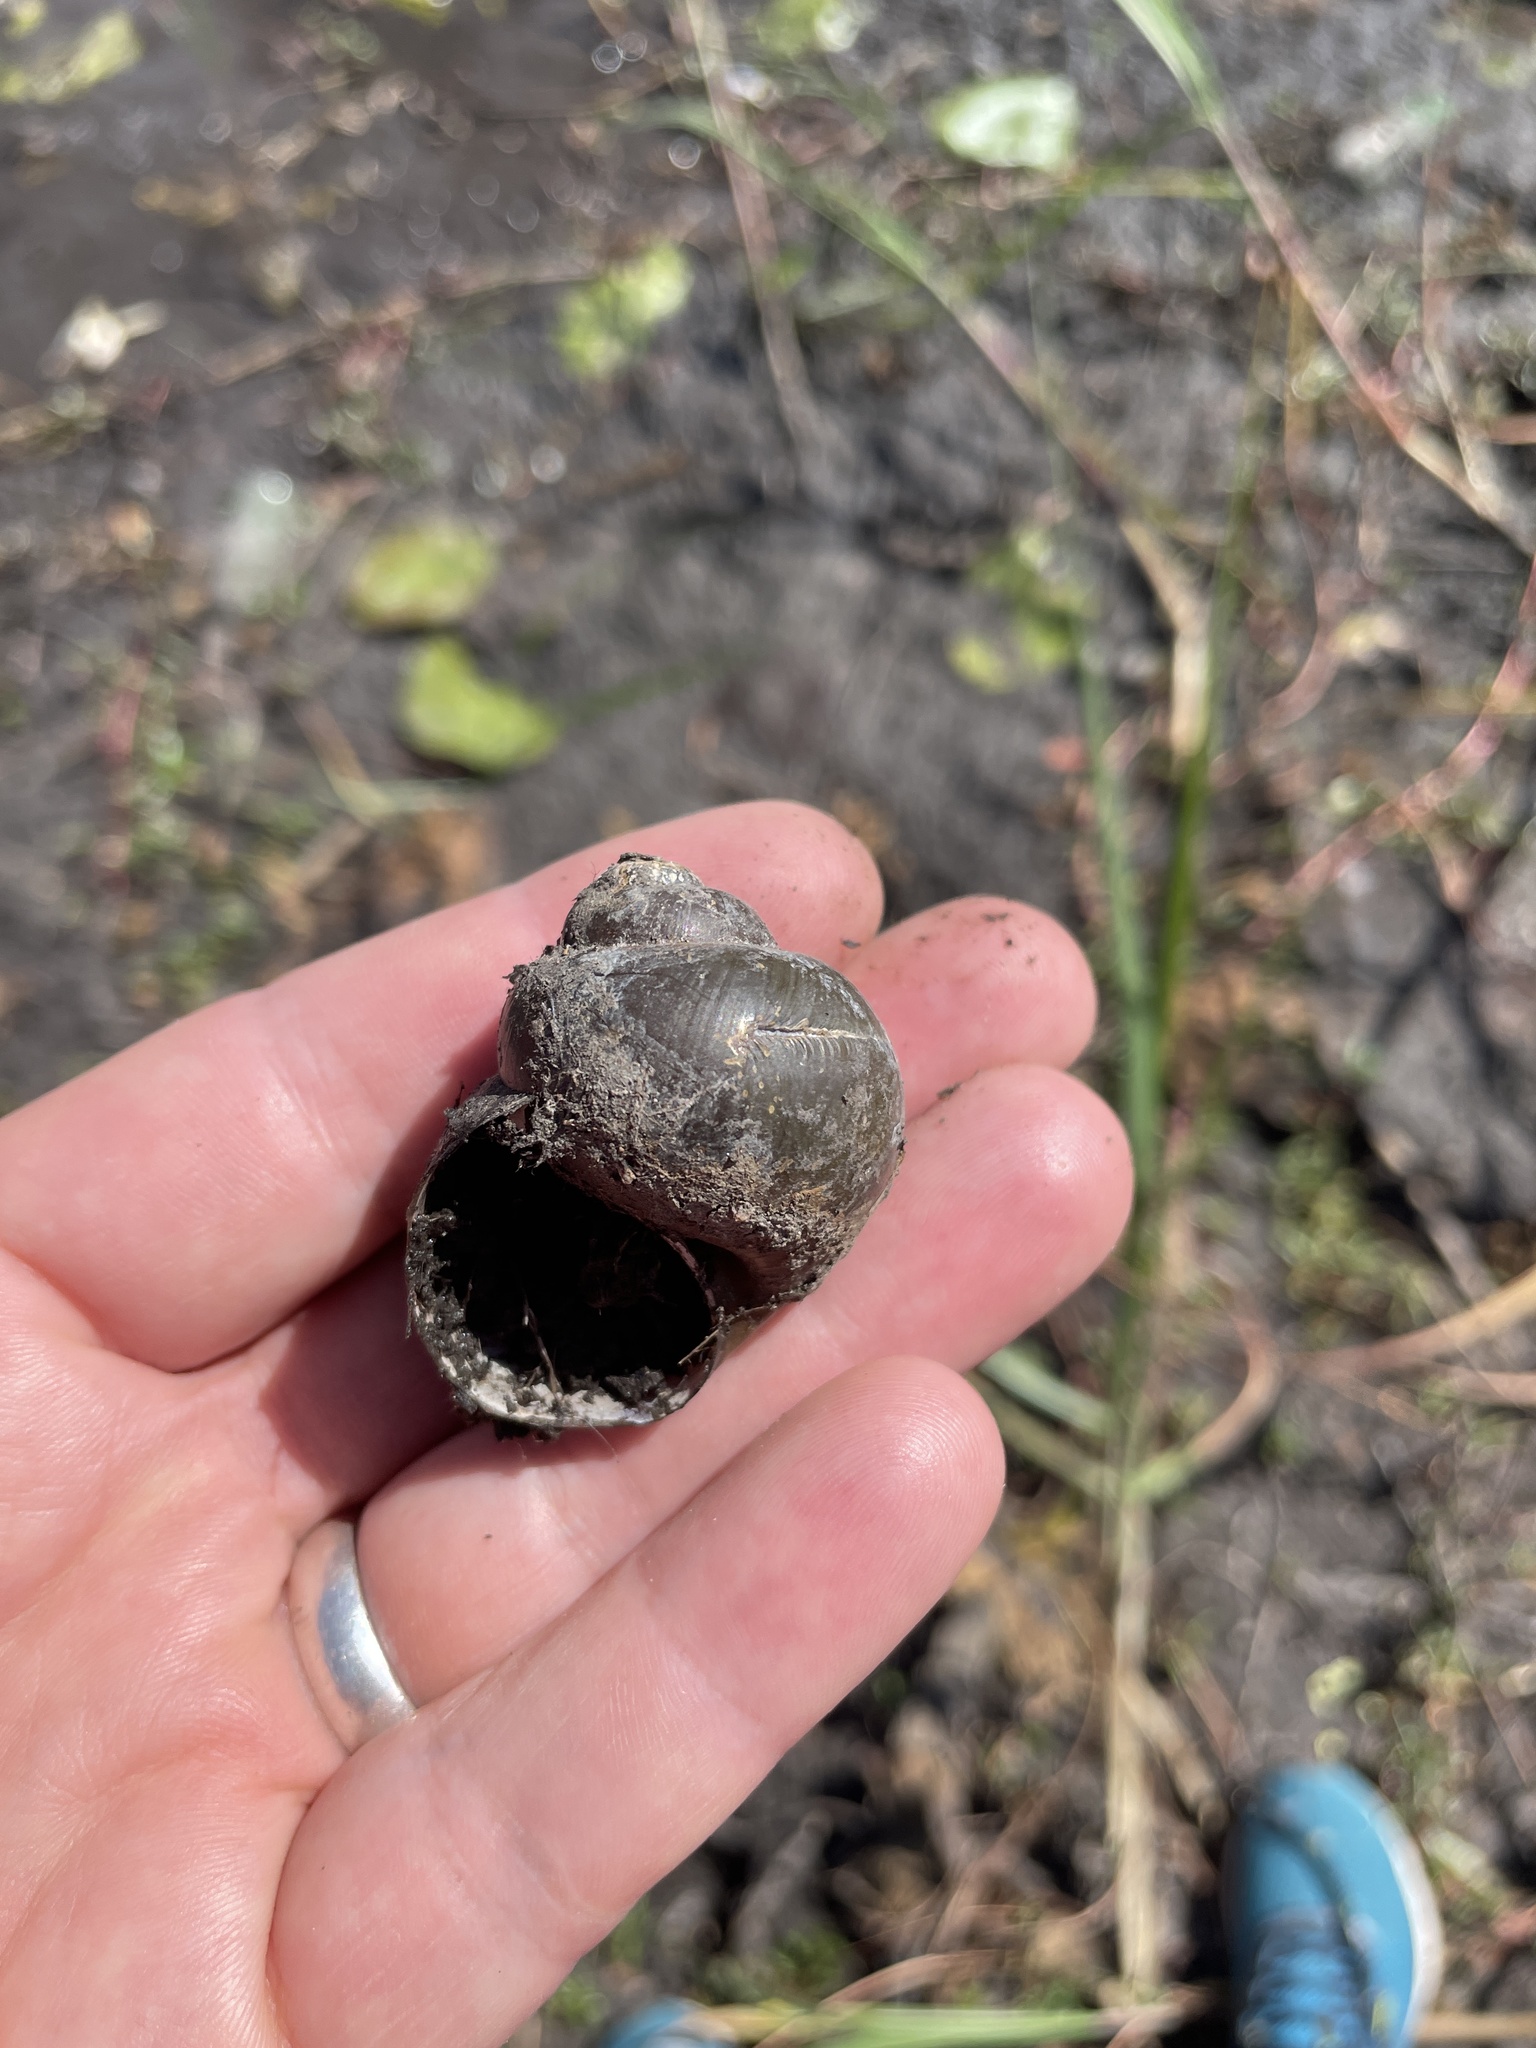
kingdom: Animalia
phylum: Mollusca
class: Gastropoda
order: Architaenioglossa
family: Ampullariidae
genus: Lanistes
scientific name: Lanistes ovum
